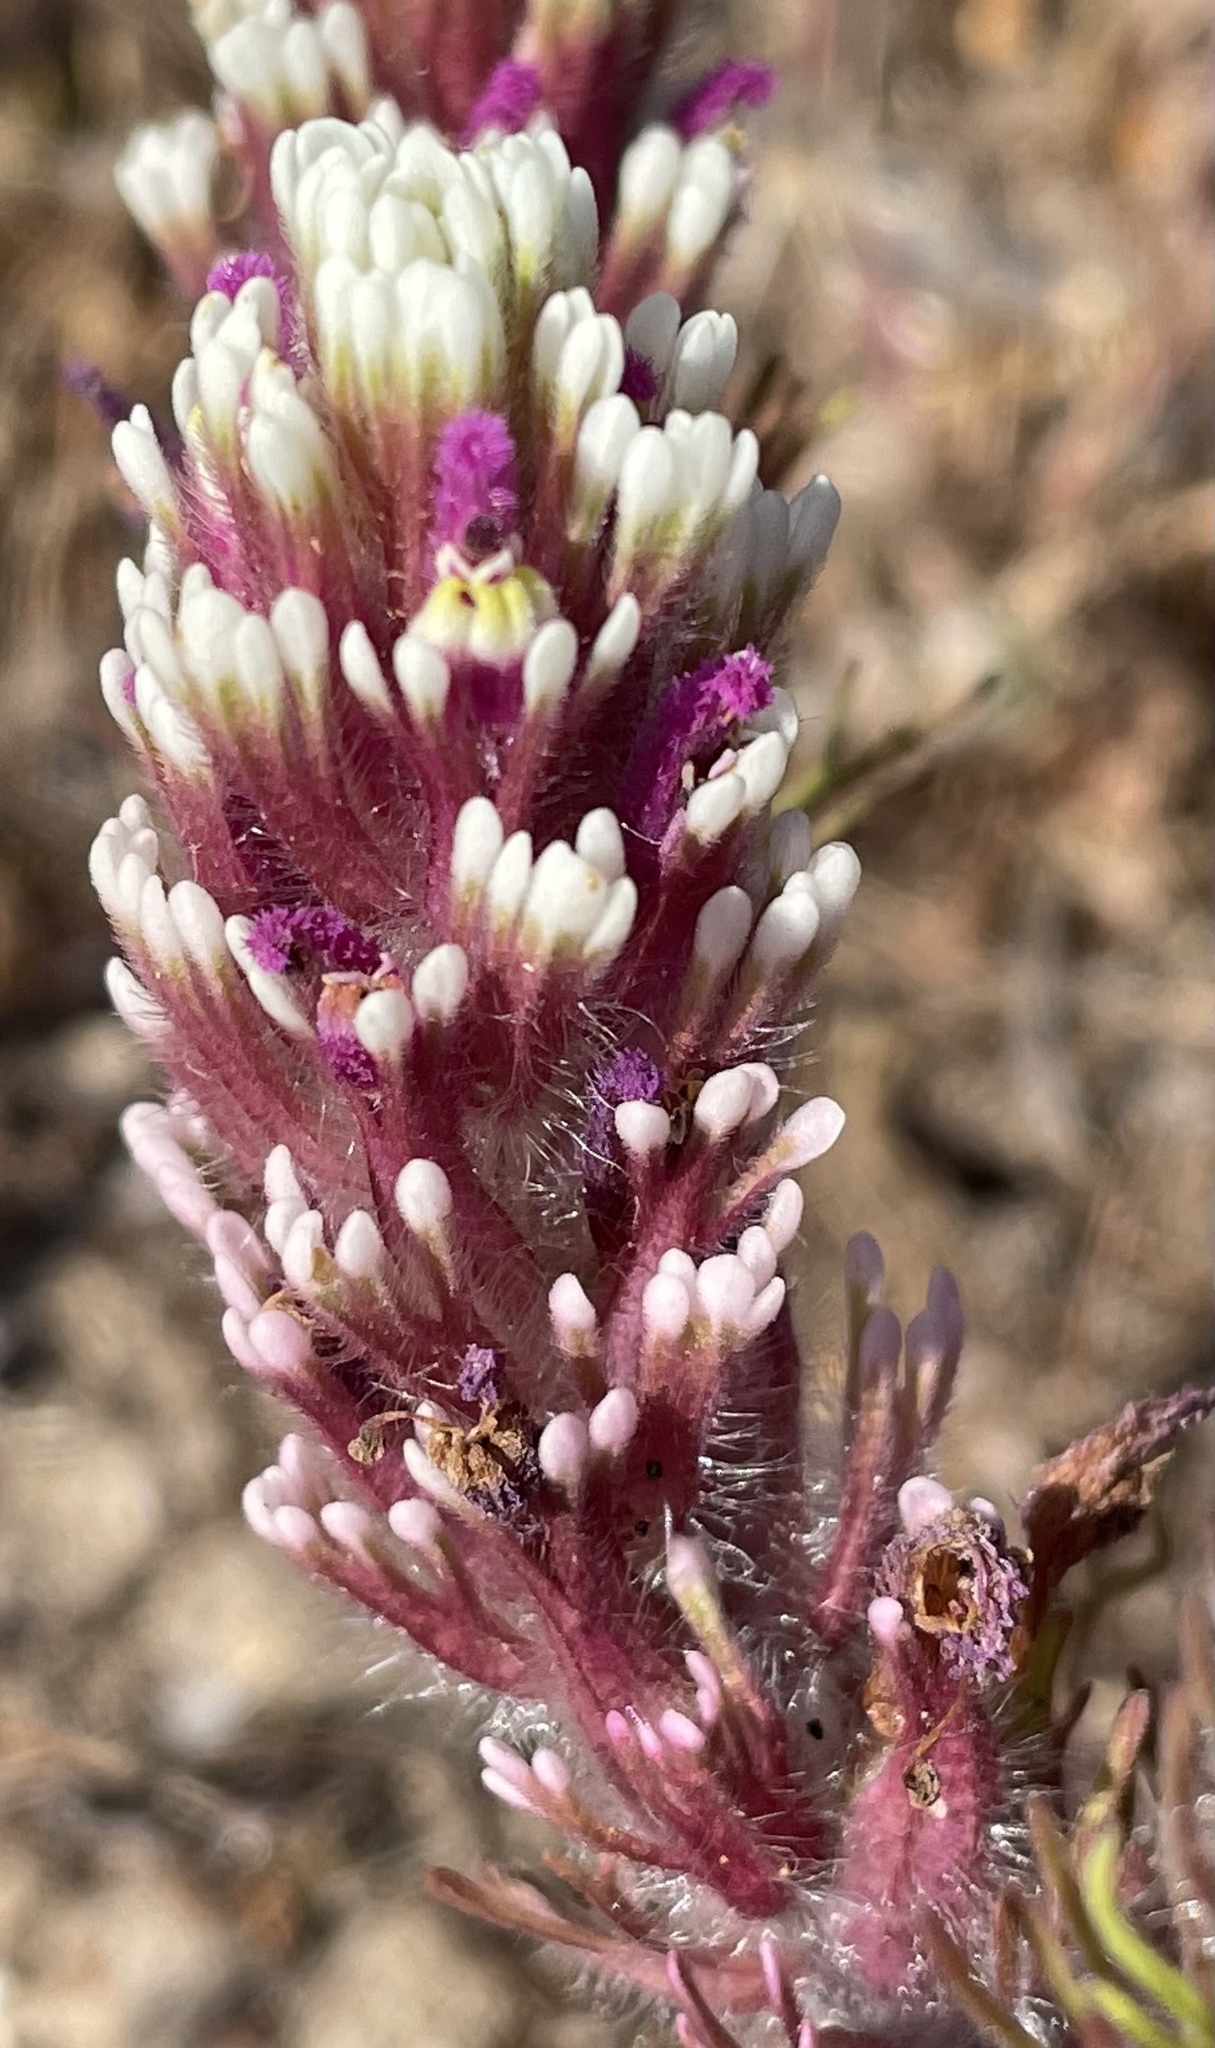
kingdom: Plantae
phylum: Tracheophyta
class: Magnoliopsida
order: Lamiales
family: Orobanchaceae
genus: Castilleja
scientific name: Castilleja exserta
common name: Purple owl-clover
